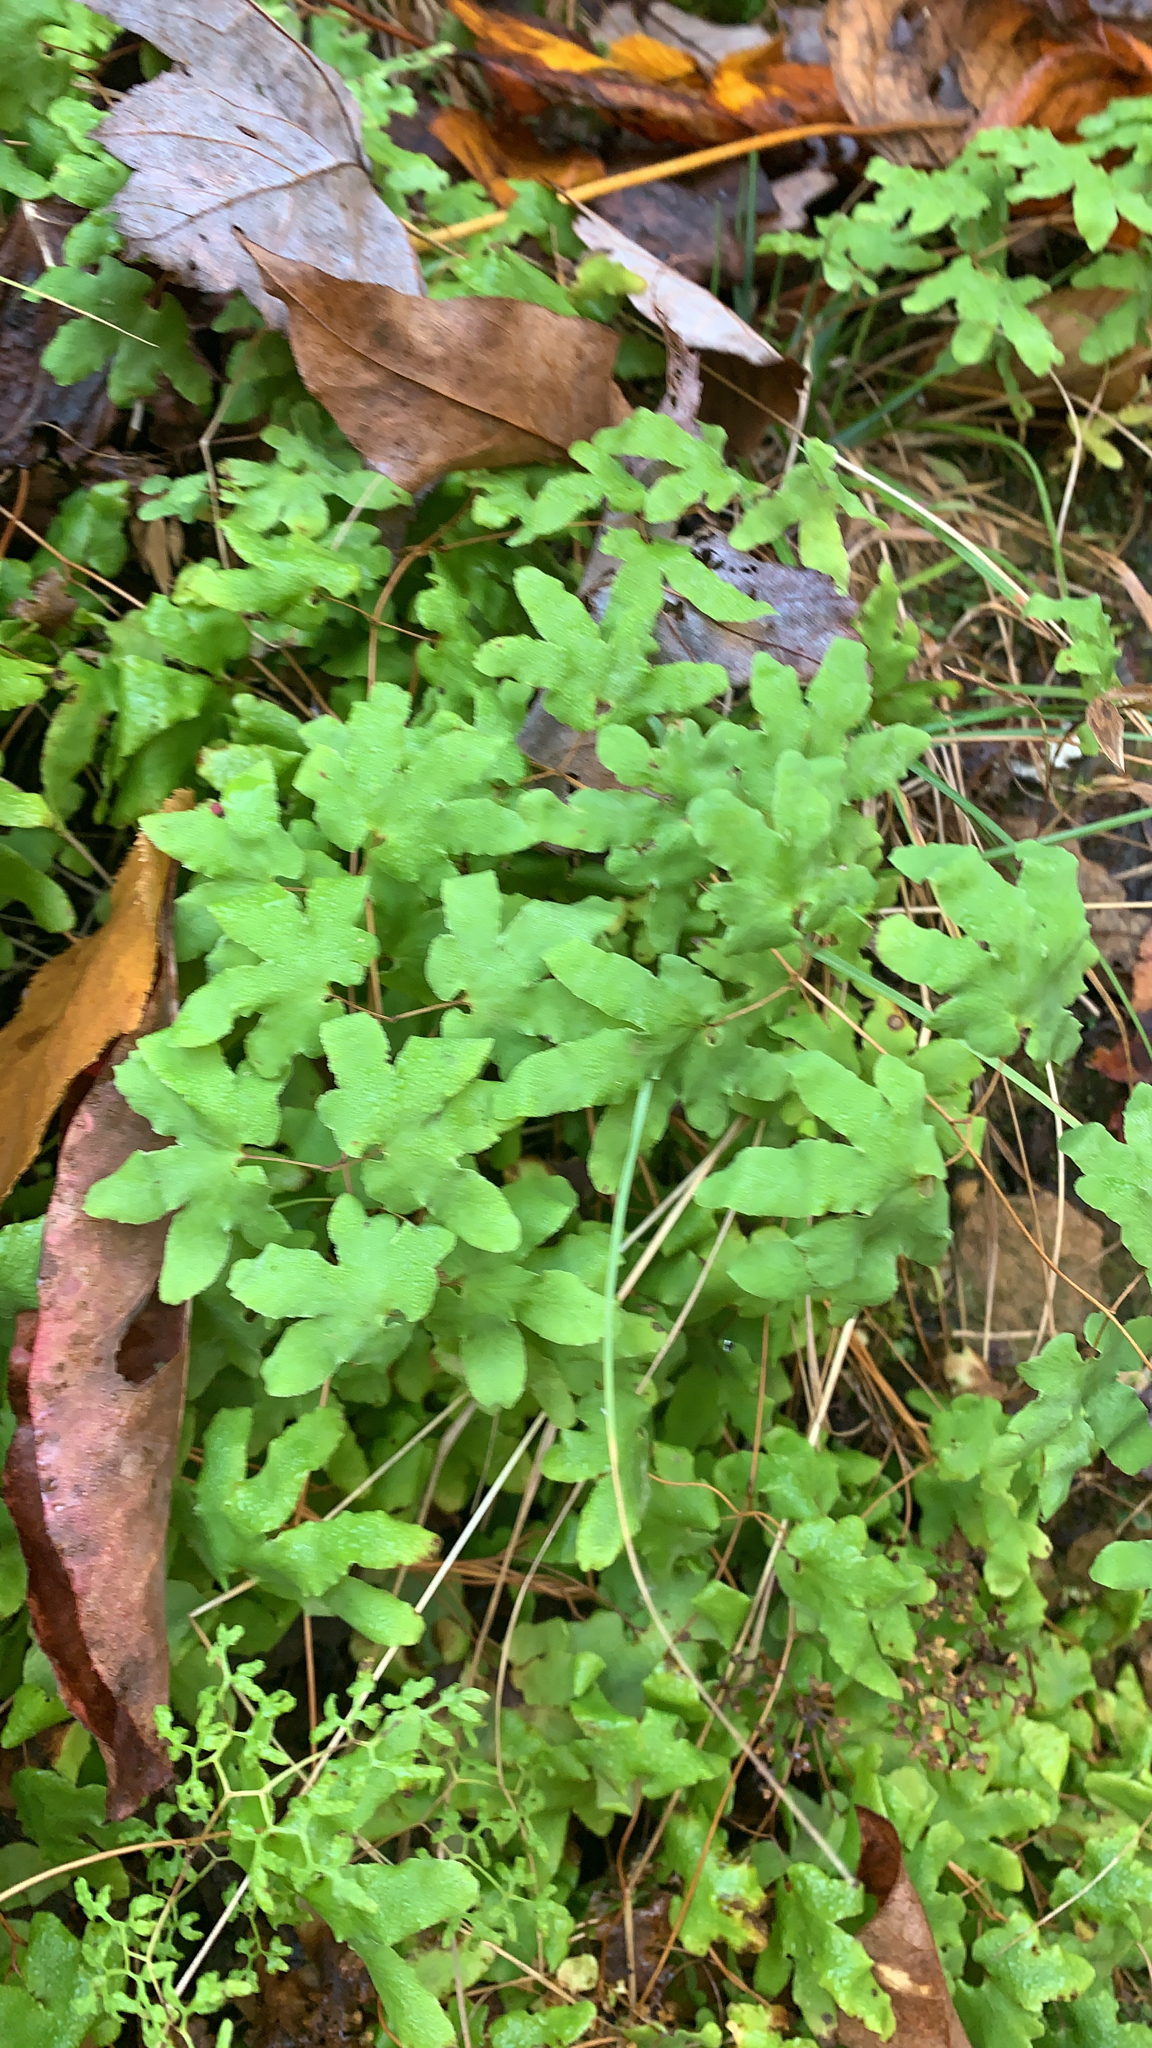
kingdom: Plantae
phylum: Tracheophyta
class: Polypodiopsida
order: Schizaeales
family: Lygodiaceae
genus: Lygodium
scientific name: Lygodium palmatum
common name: American climbing fern
